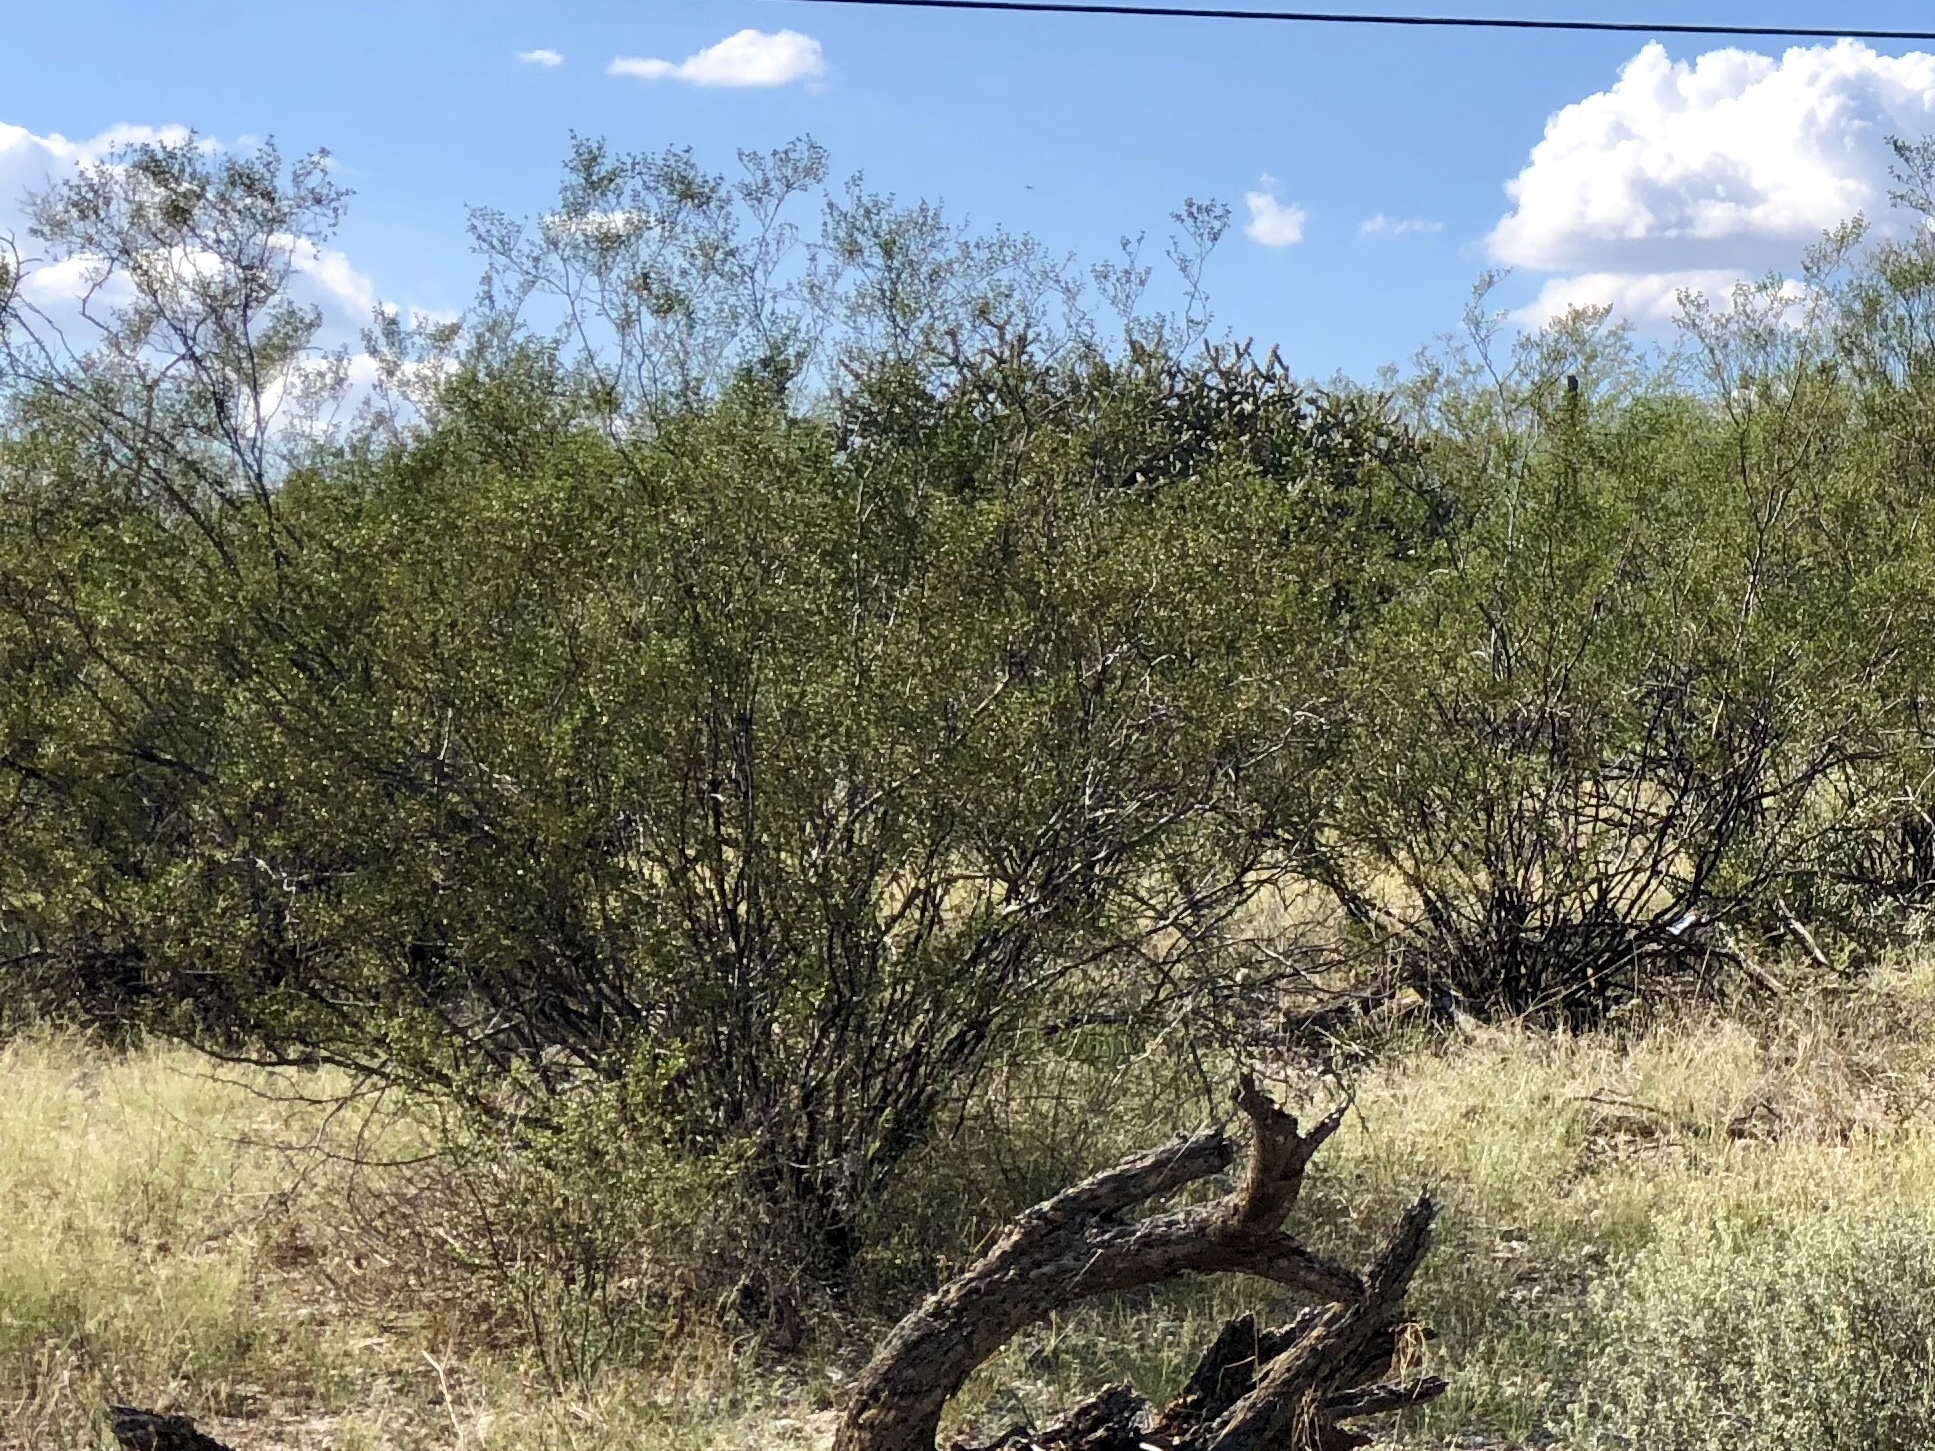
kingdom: Plantae
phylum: Tracheophyta
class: Magnoliopsida
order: Zygophyllales
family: Zygophyllaceae
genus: Larrea
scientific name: Larrea tridentata
